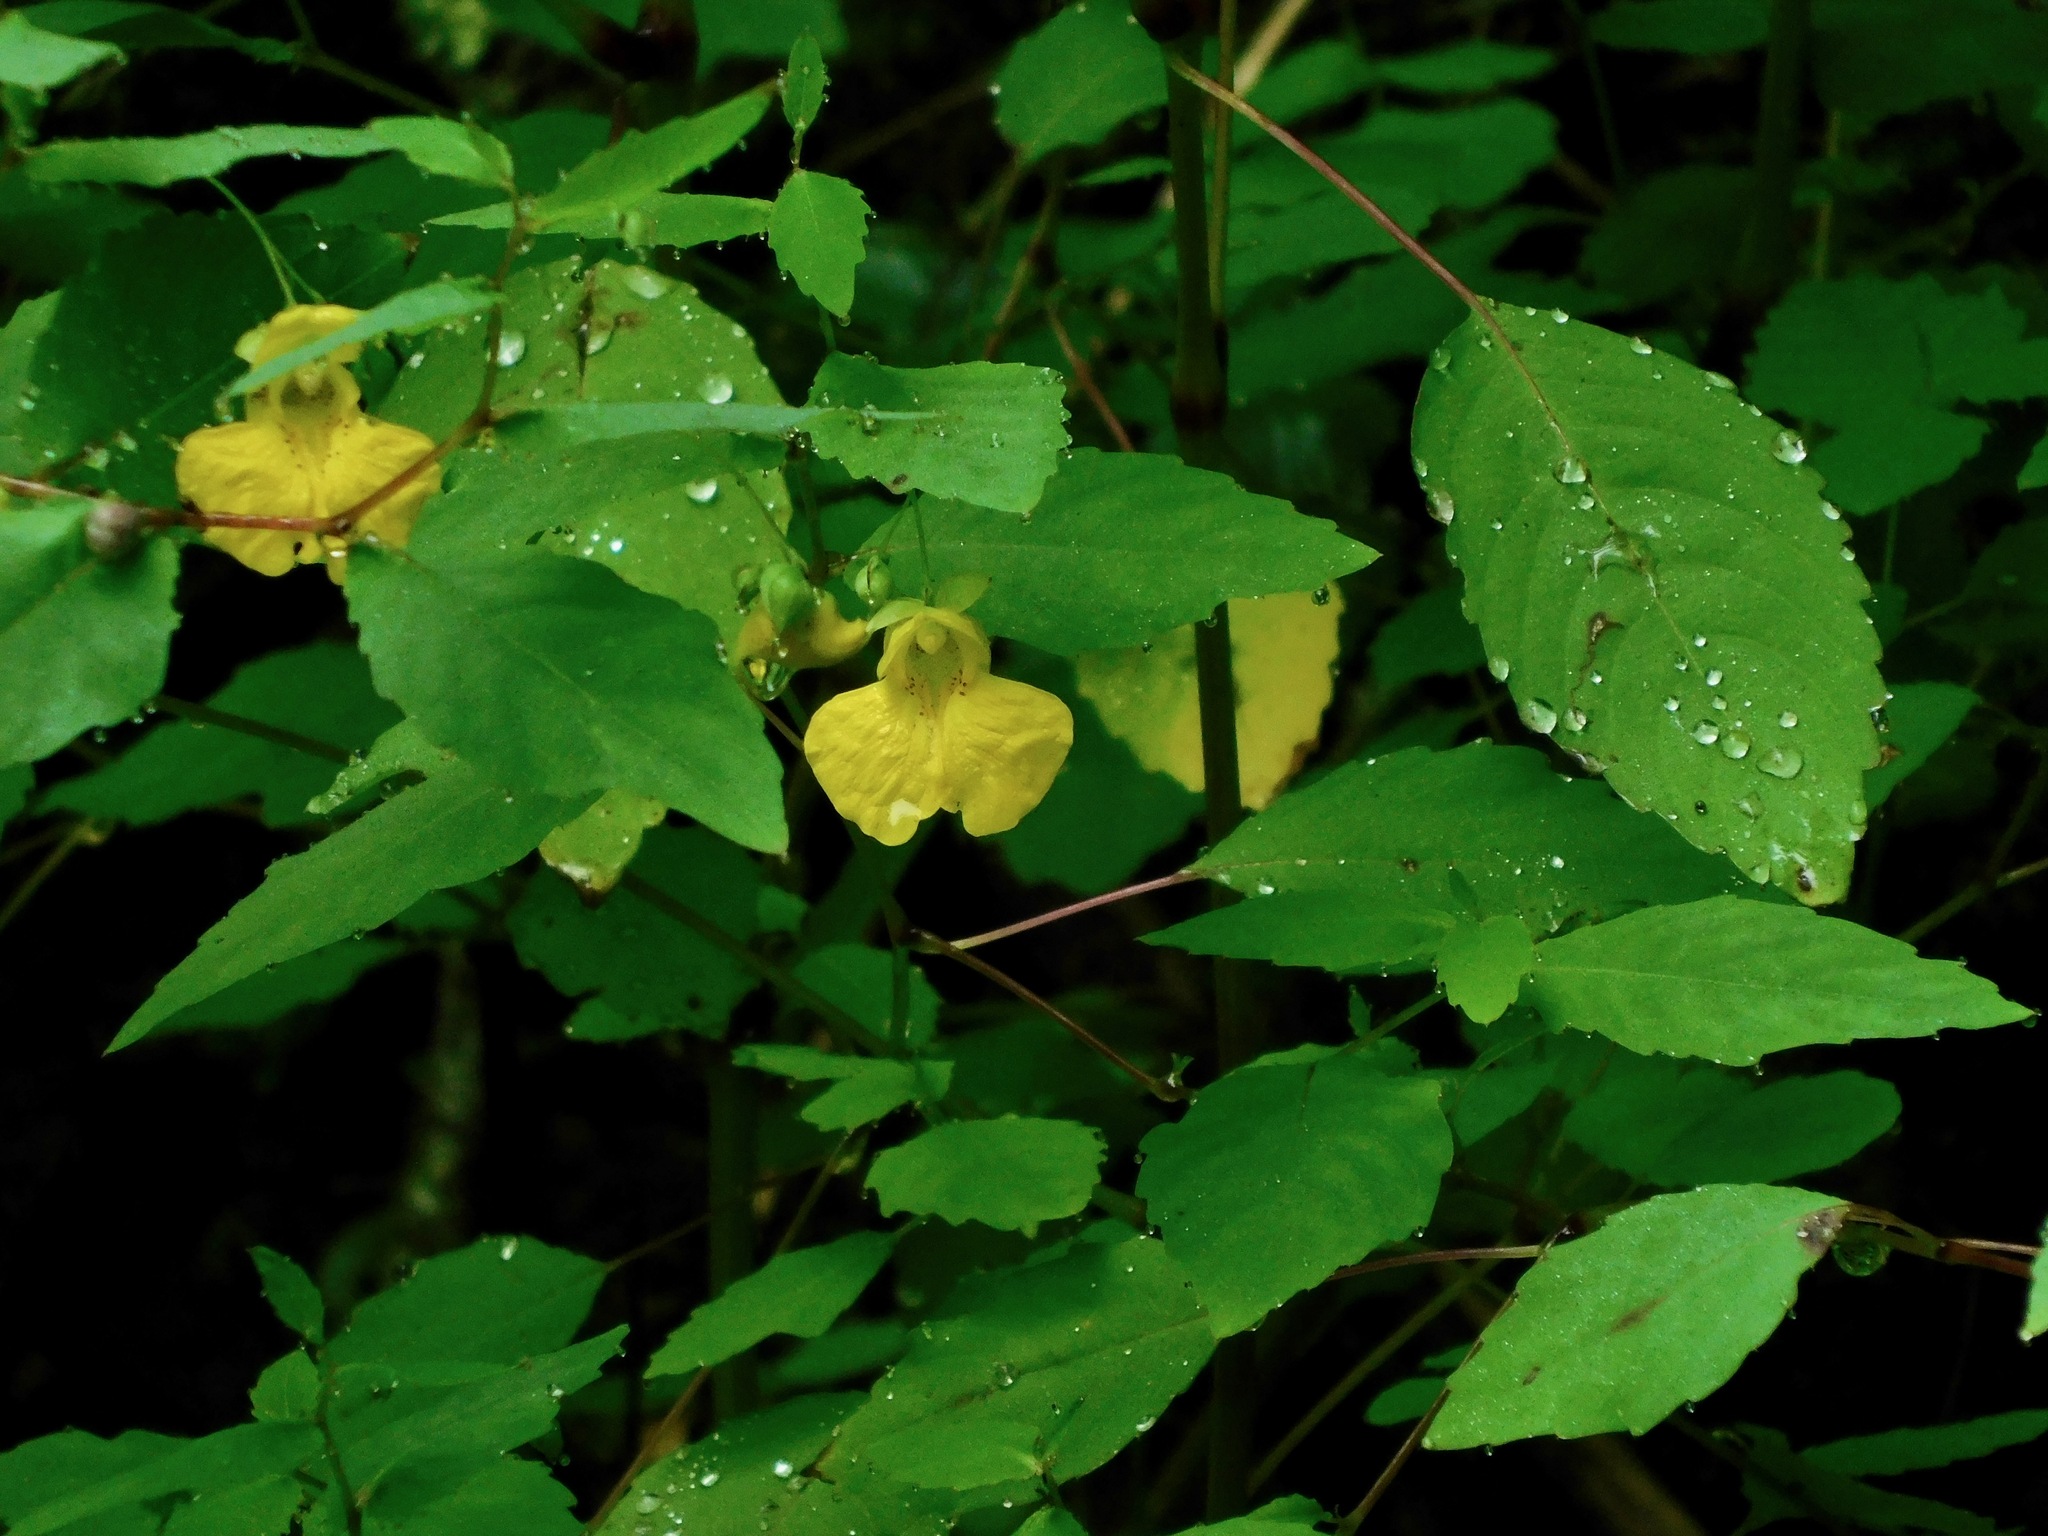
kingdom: Plantae
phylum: Tracheophyta
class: Magnoliopsida
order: Ericales
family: Balsaminaceae
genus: Impatiens
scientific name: Impatiens pallida
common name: Pale snapweed
